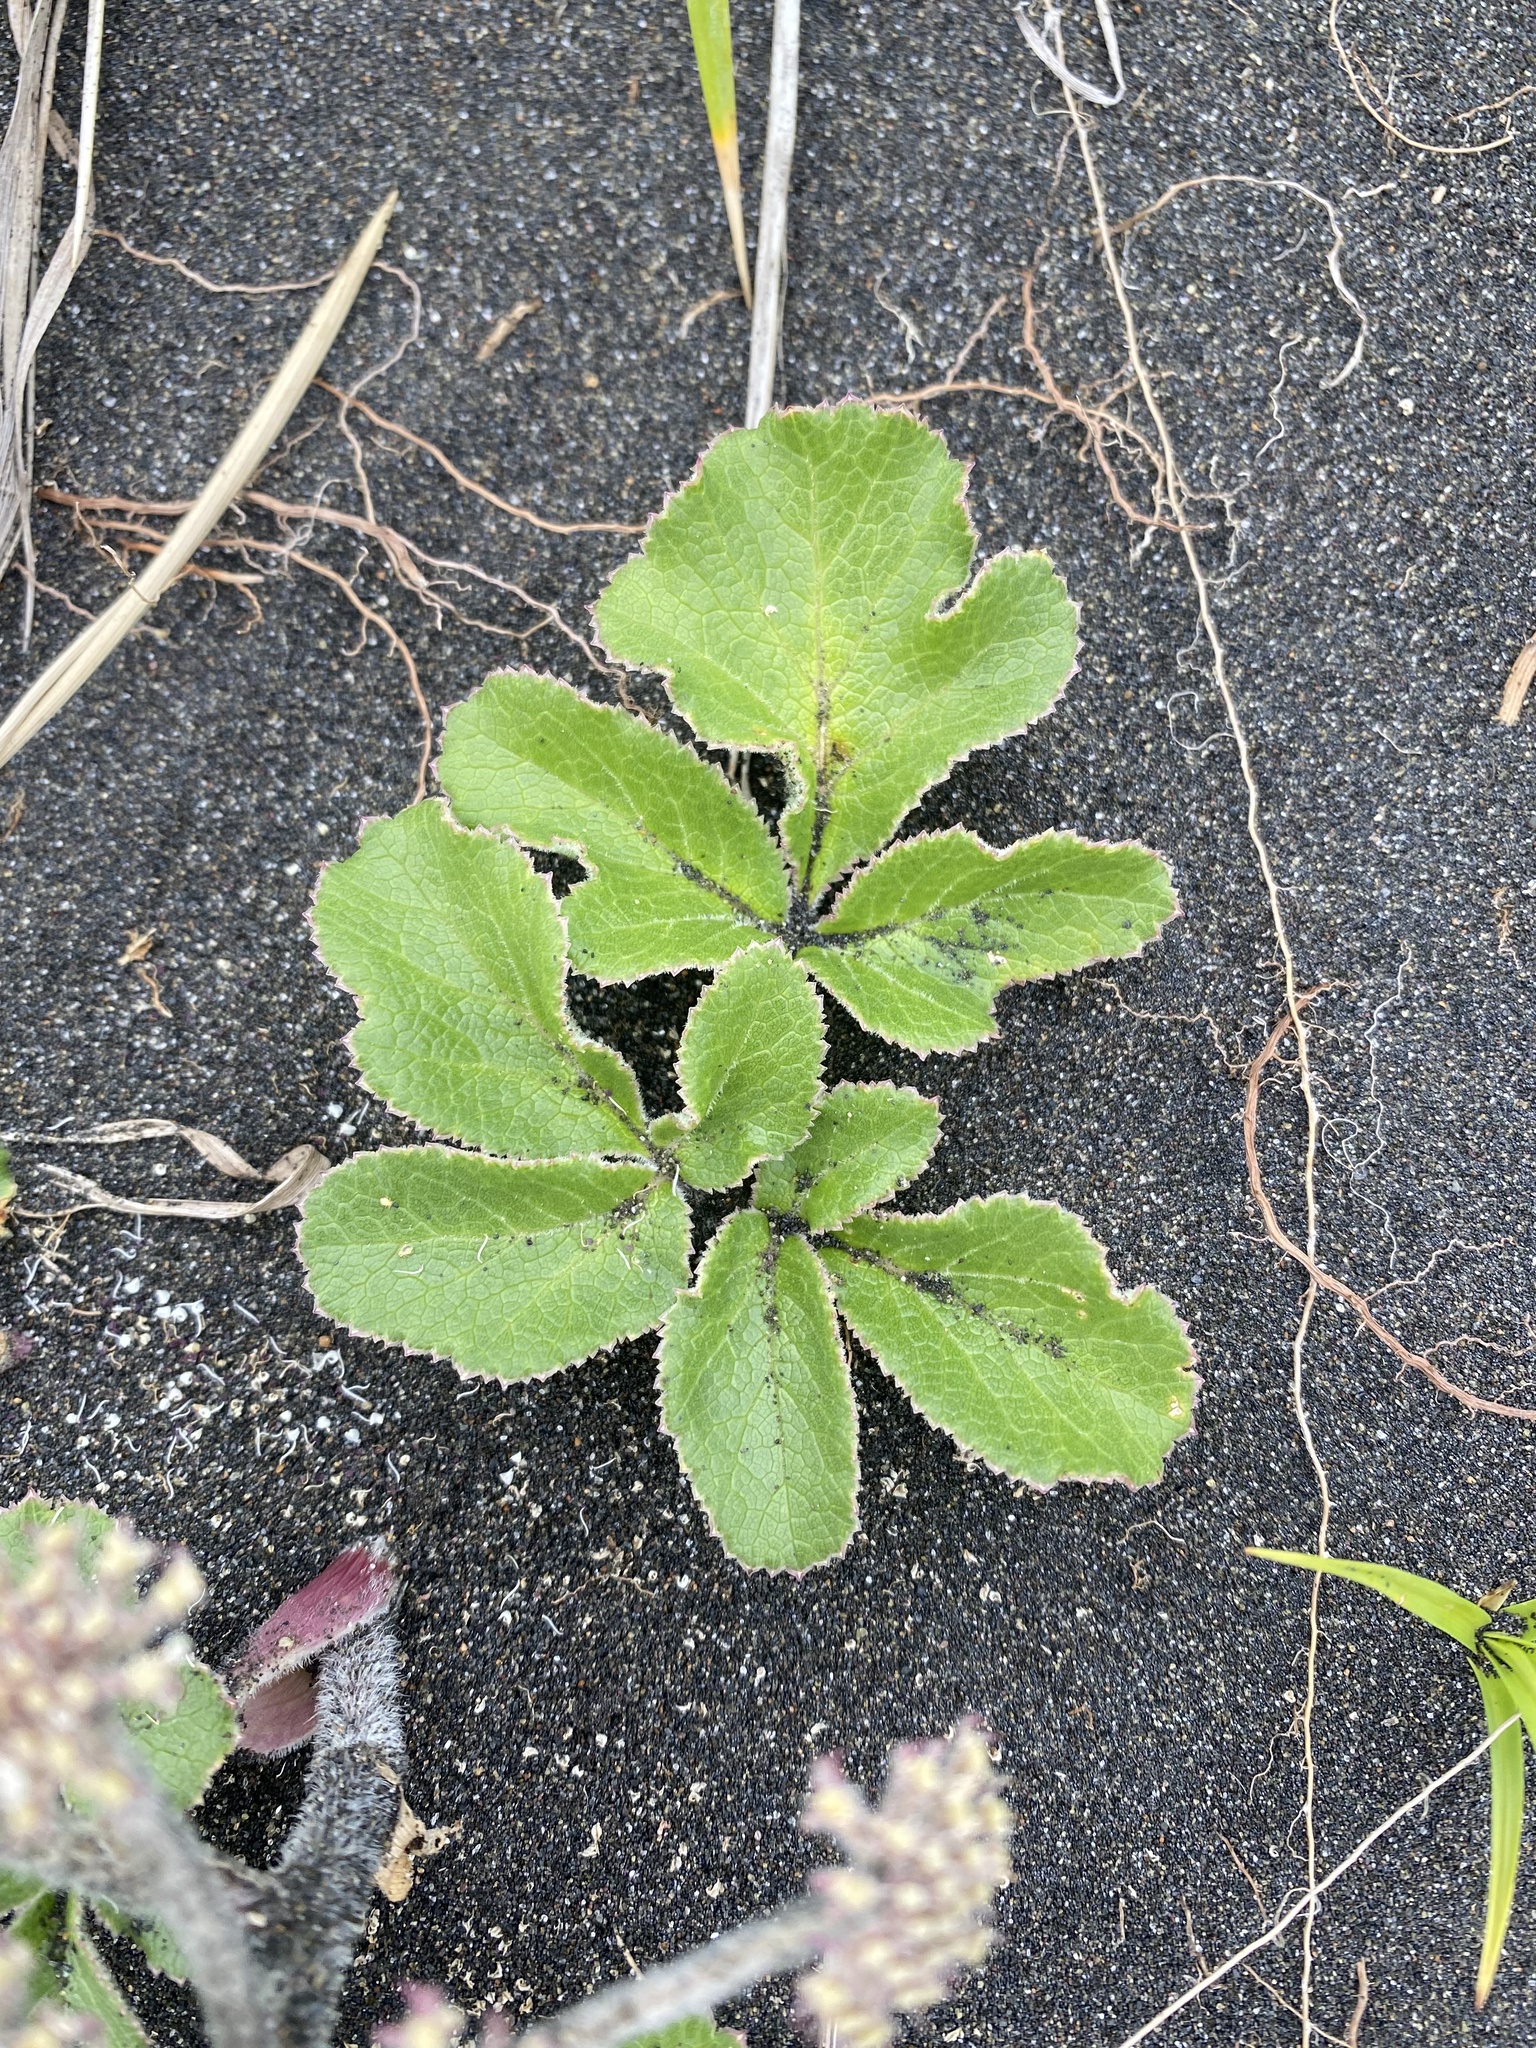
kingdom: Plantae
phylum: Tracheophyta
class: Magnoliopsida
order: Apiales
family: Apiaceae
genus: Glehnia
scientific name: Glehnia littoralis
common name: Beach silvertop
